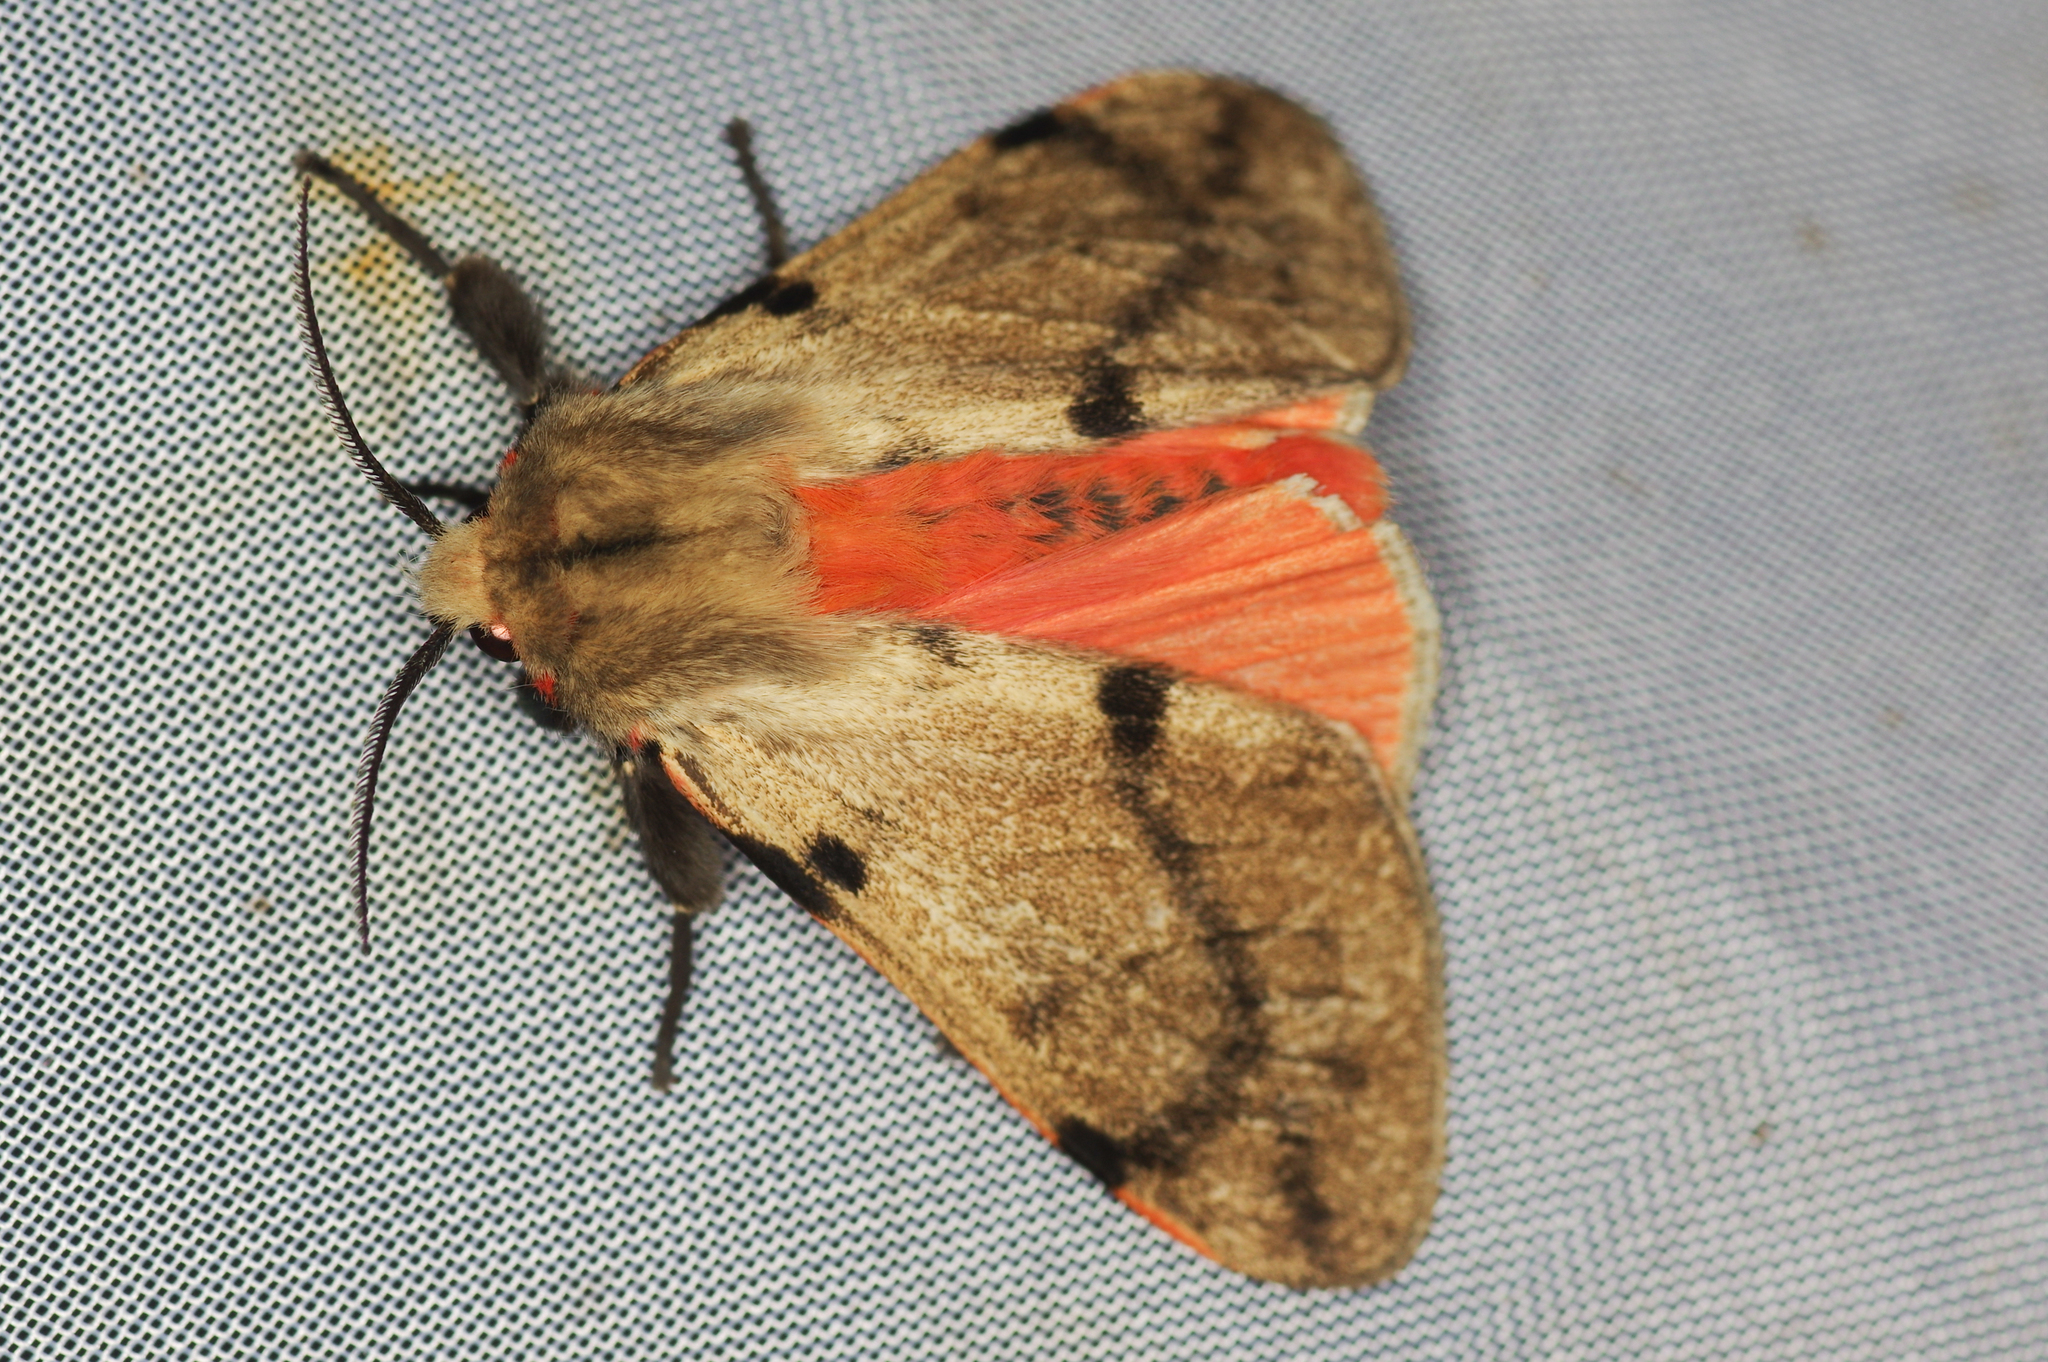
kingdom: Animalia
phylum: Arthropoda
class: Insecta
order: Lepidoptera
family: Erebidae
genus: Spilosoma
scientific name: Spilosoma lateritica
